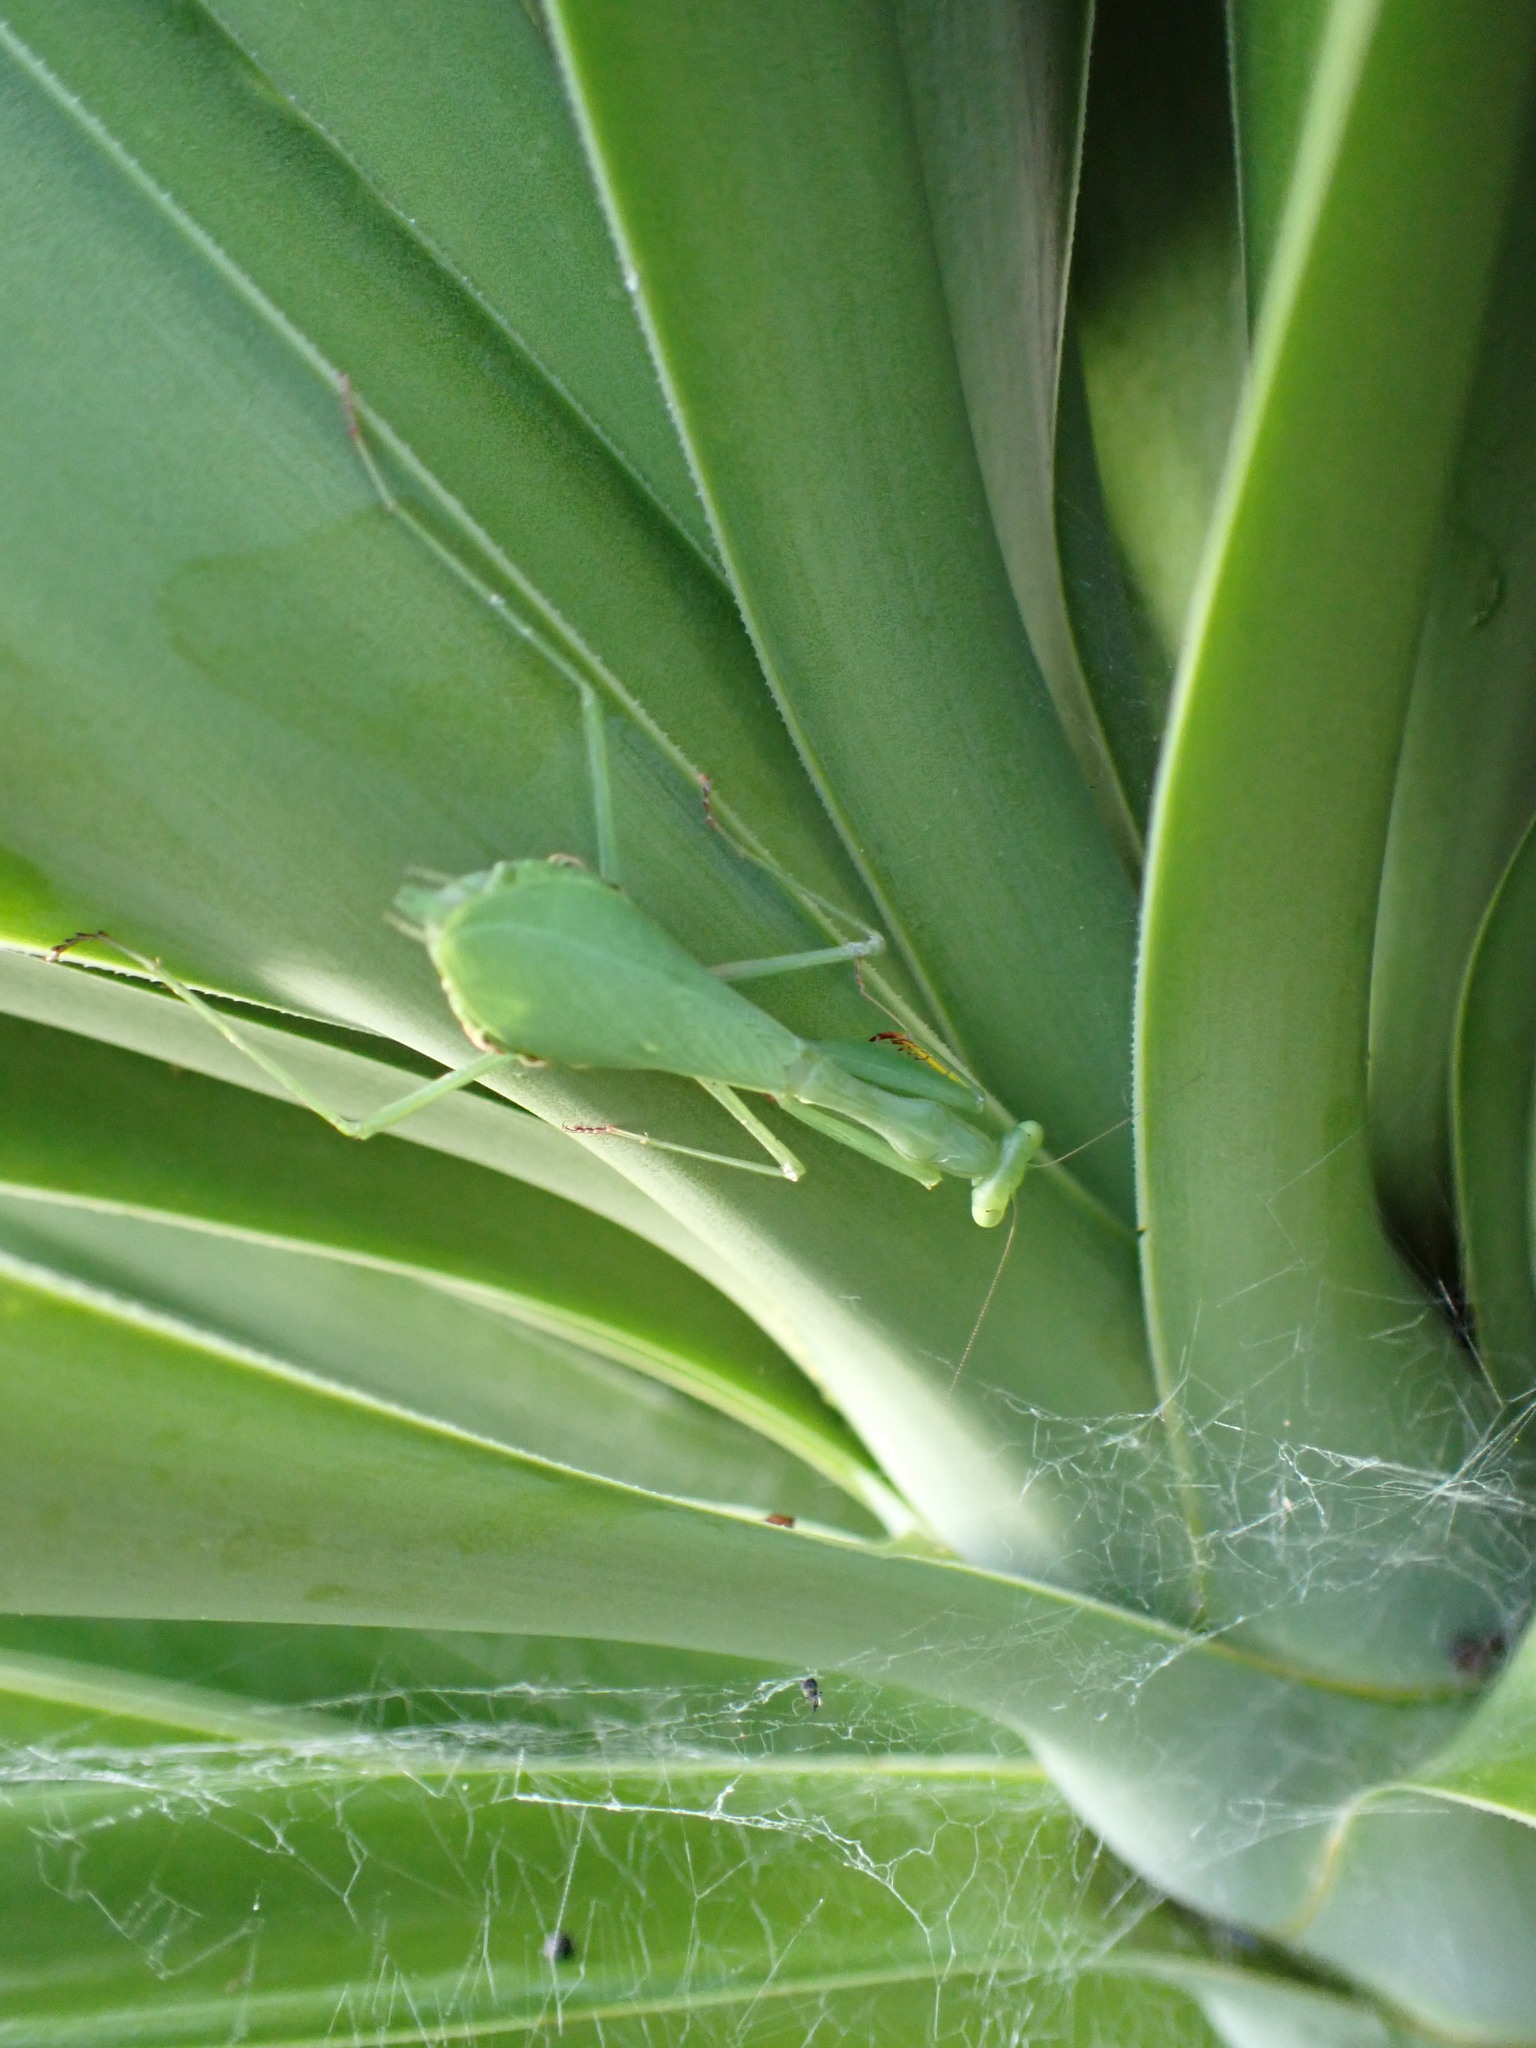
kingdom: Animalia
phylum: Arthropoda
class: Insecta
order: Mantodea
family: Miomantidae
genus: Miomantis
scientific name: Miomantis caffra
